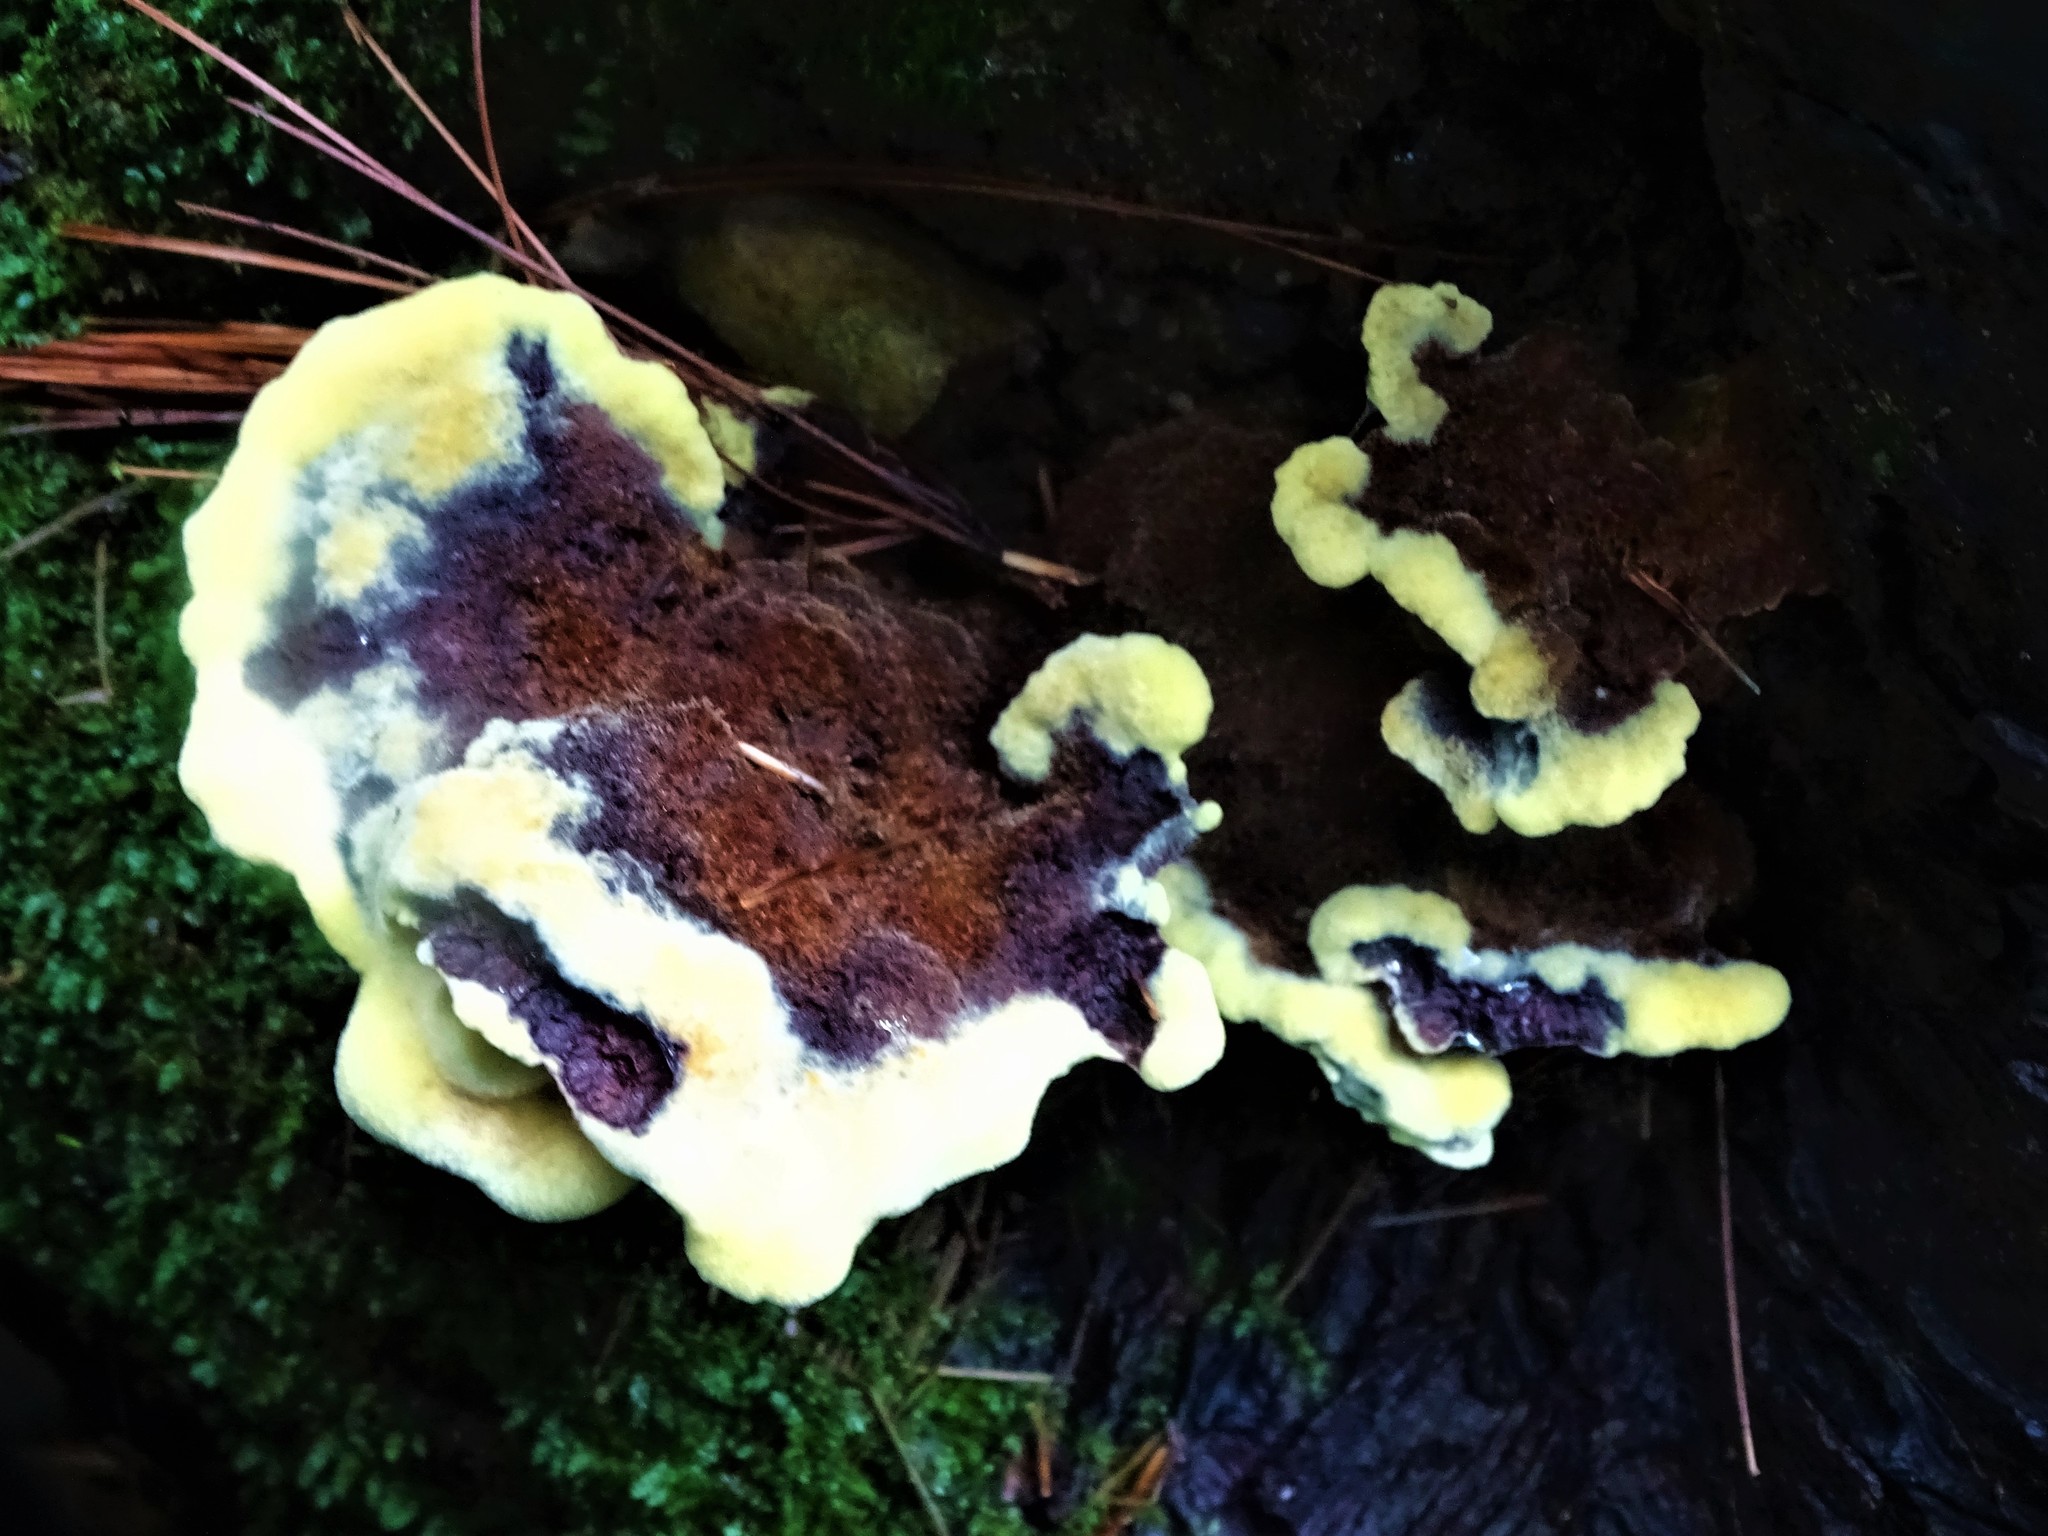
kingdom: Fungi
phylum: Basidiomycota
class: Agaricomycetes
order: Polyporales
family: Laetiporaceae
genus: Phaeolus
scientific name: Phaeolus schweinitzii
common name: Dyer's mazegill
